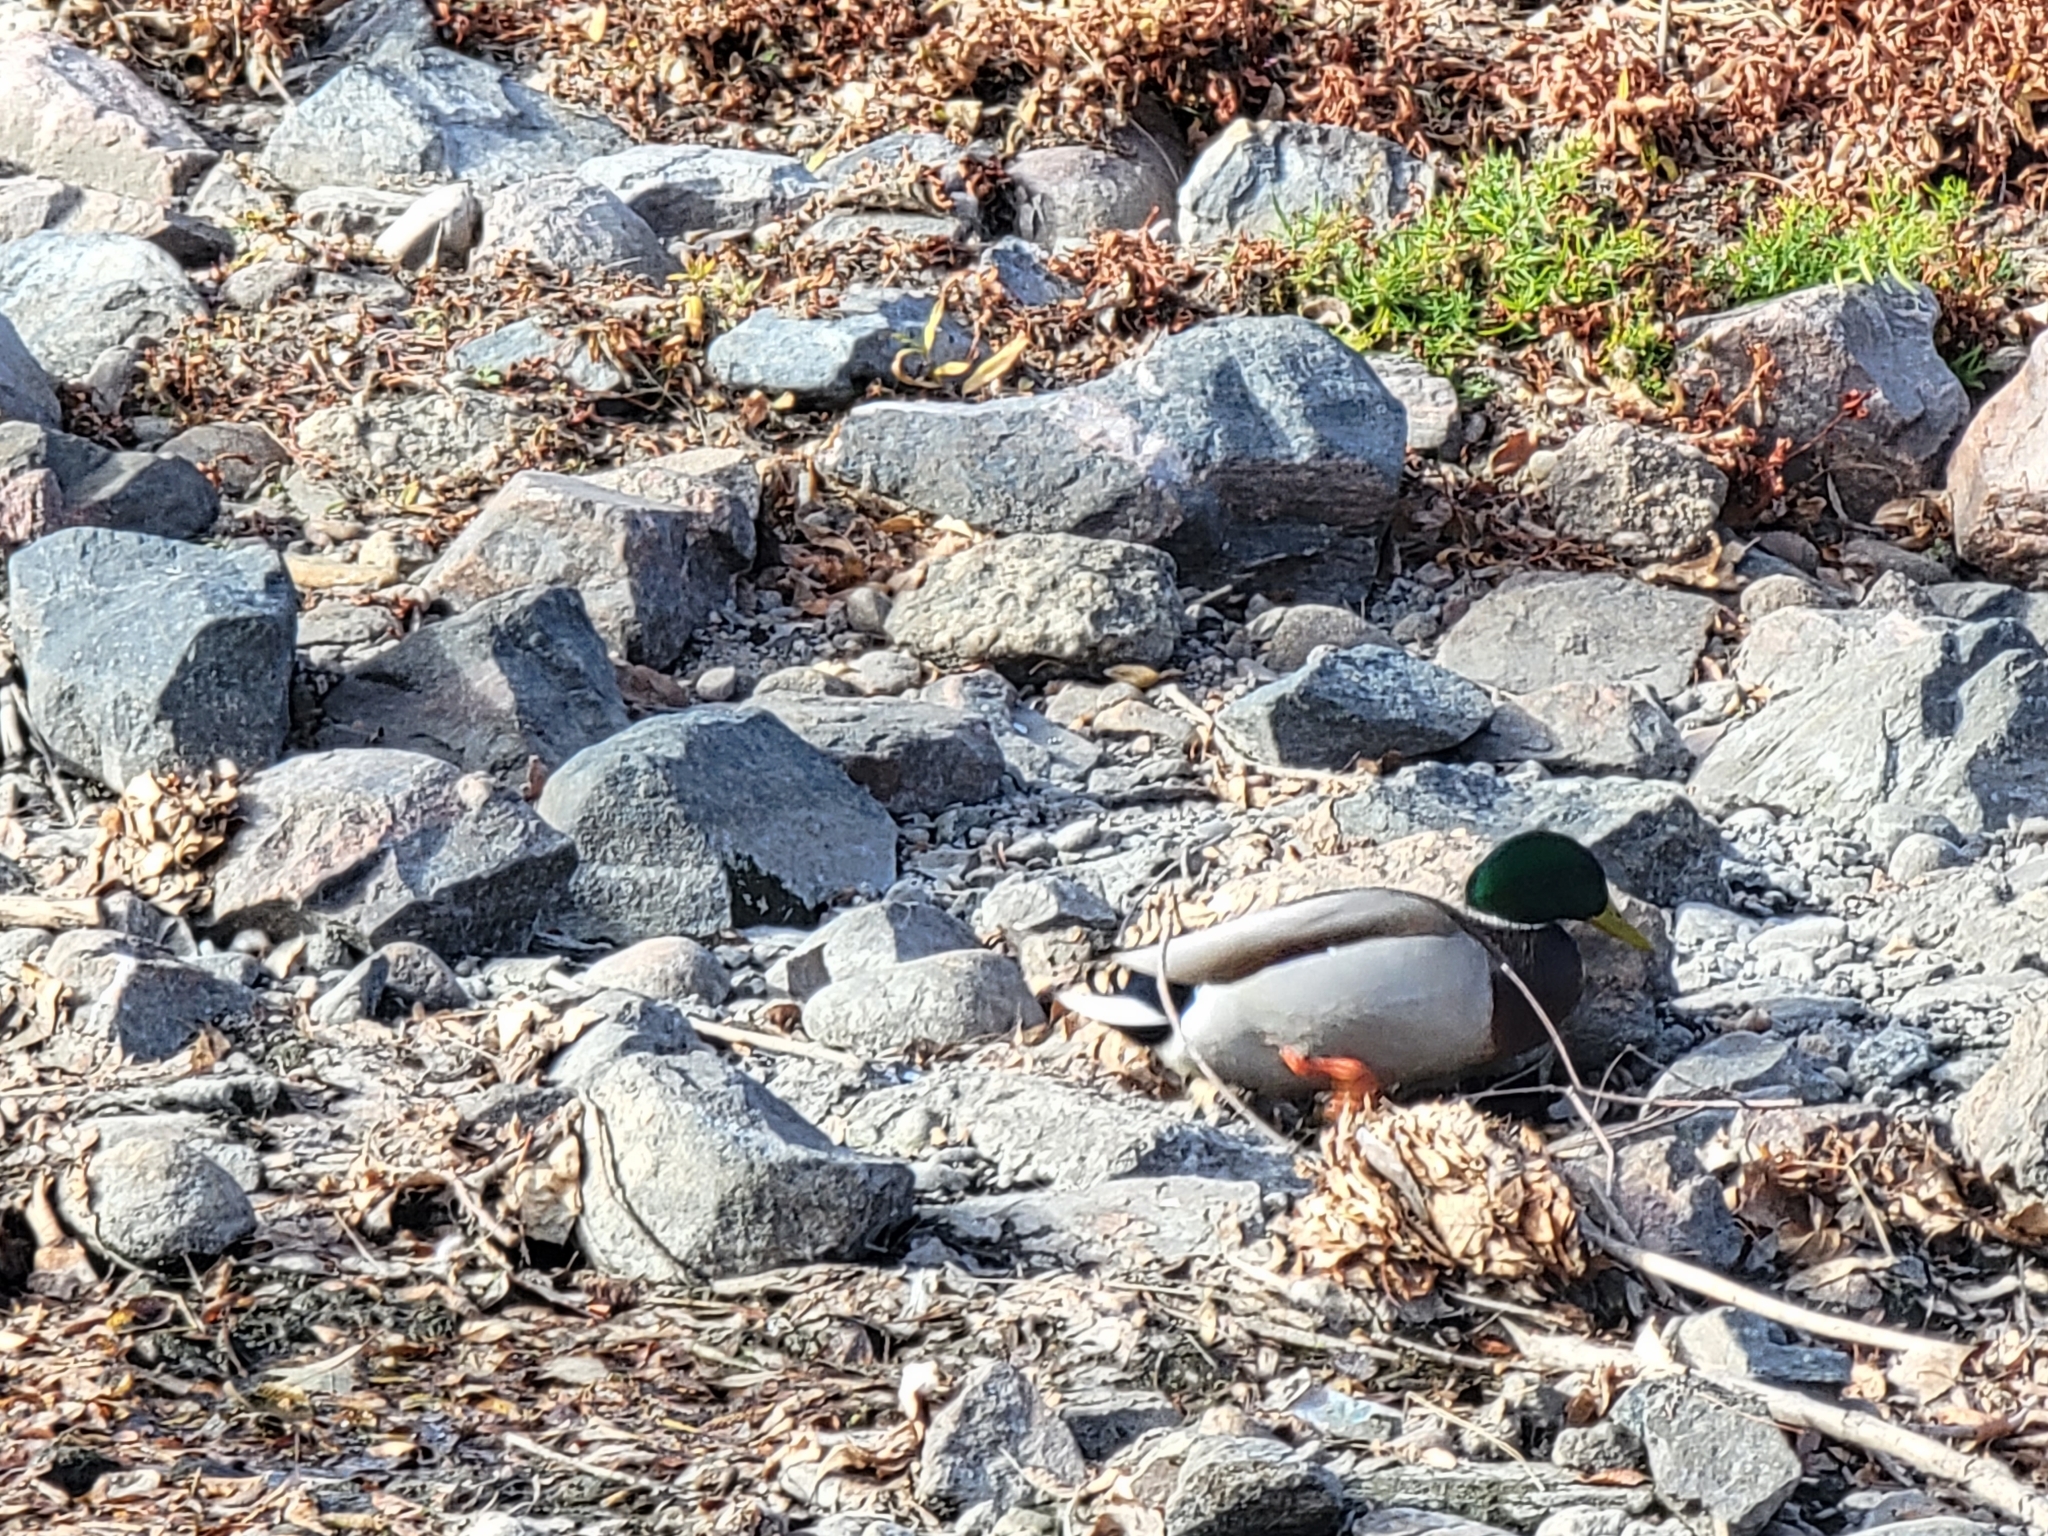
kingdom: Animalia
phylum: Chordata
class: Aves
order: Anseriformes
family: Anatidae
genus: Anas
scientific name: Anas platyrhynchos
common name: Mallard
